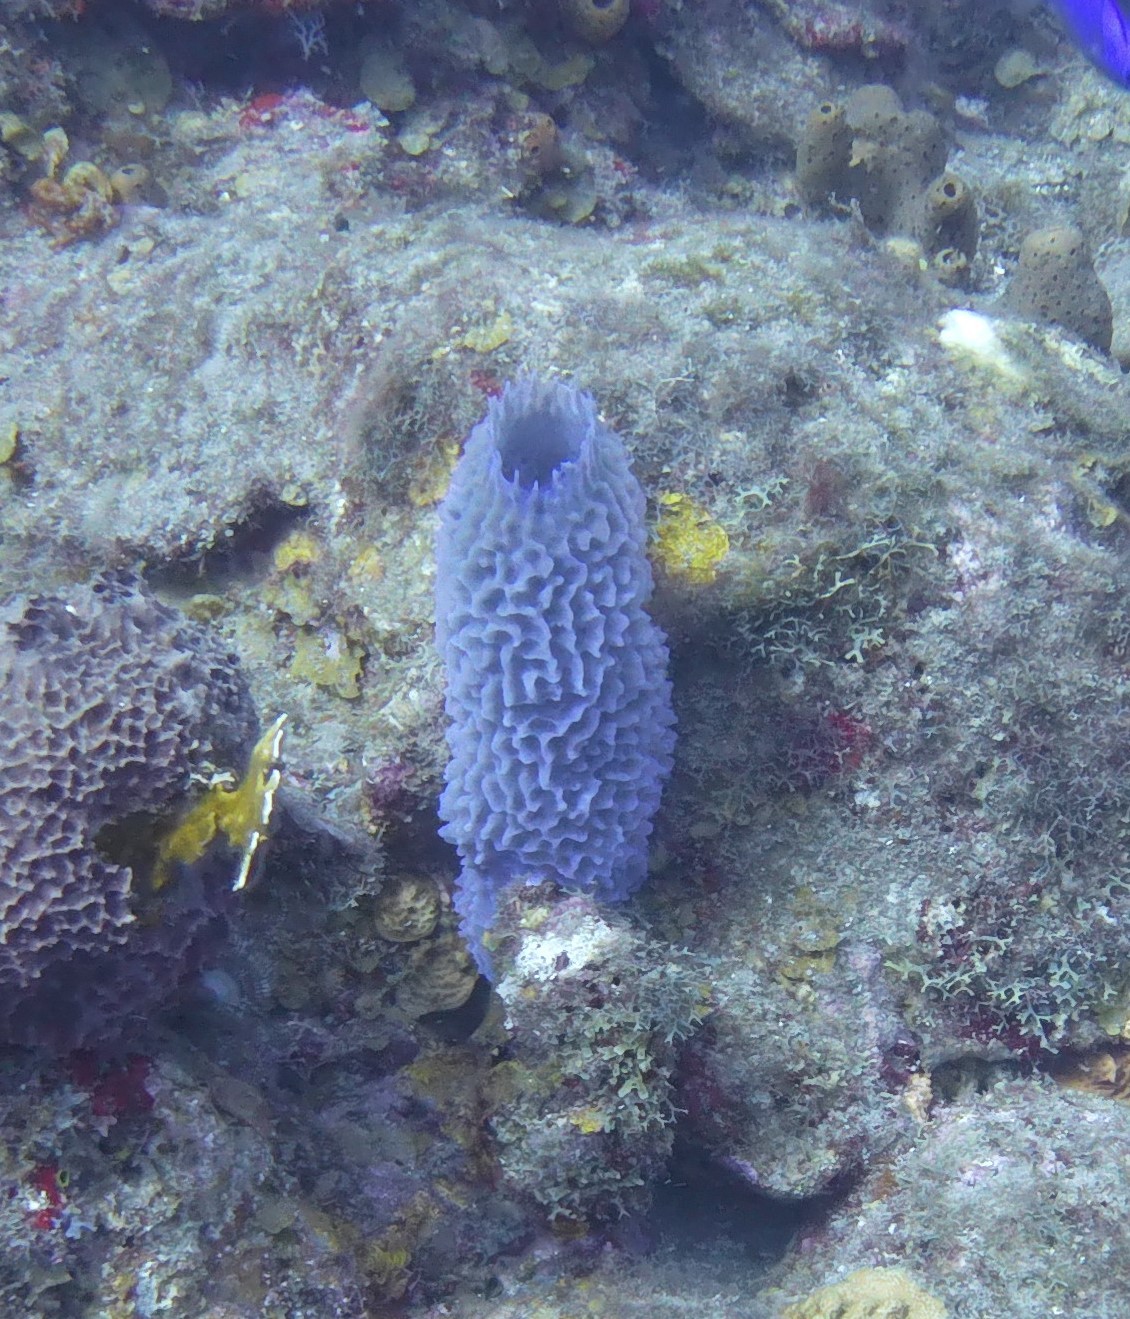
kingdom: Animalia
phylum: Porifera
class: Demospongiae
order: Haplosclerida
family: Callyspongiidae
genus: Callyspongia
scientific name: Callyspongia plicifera
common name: Azure vase sponge
